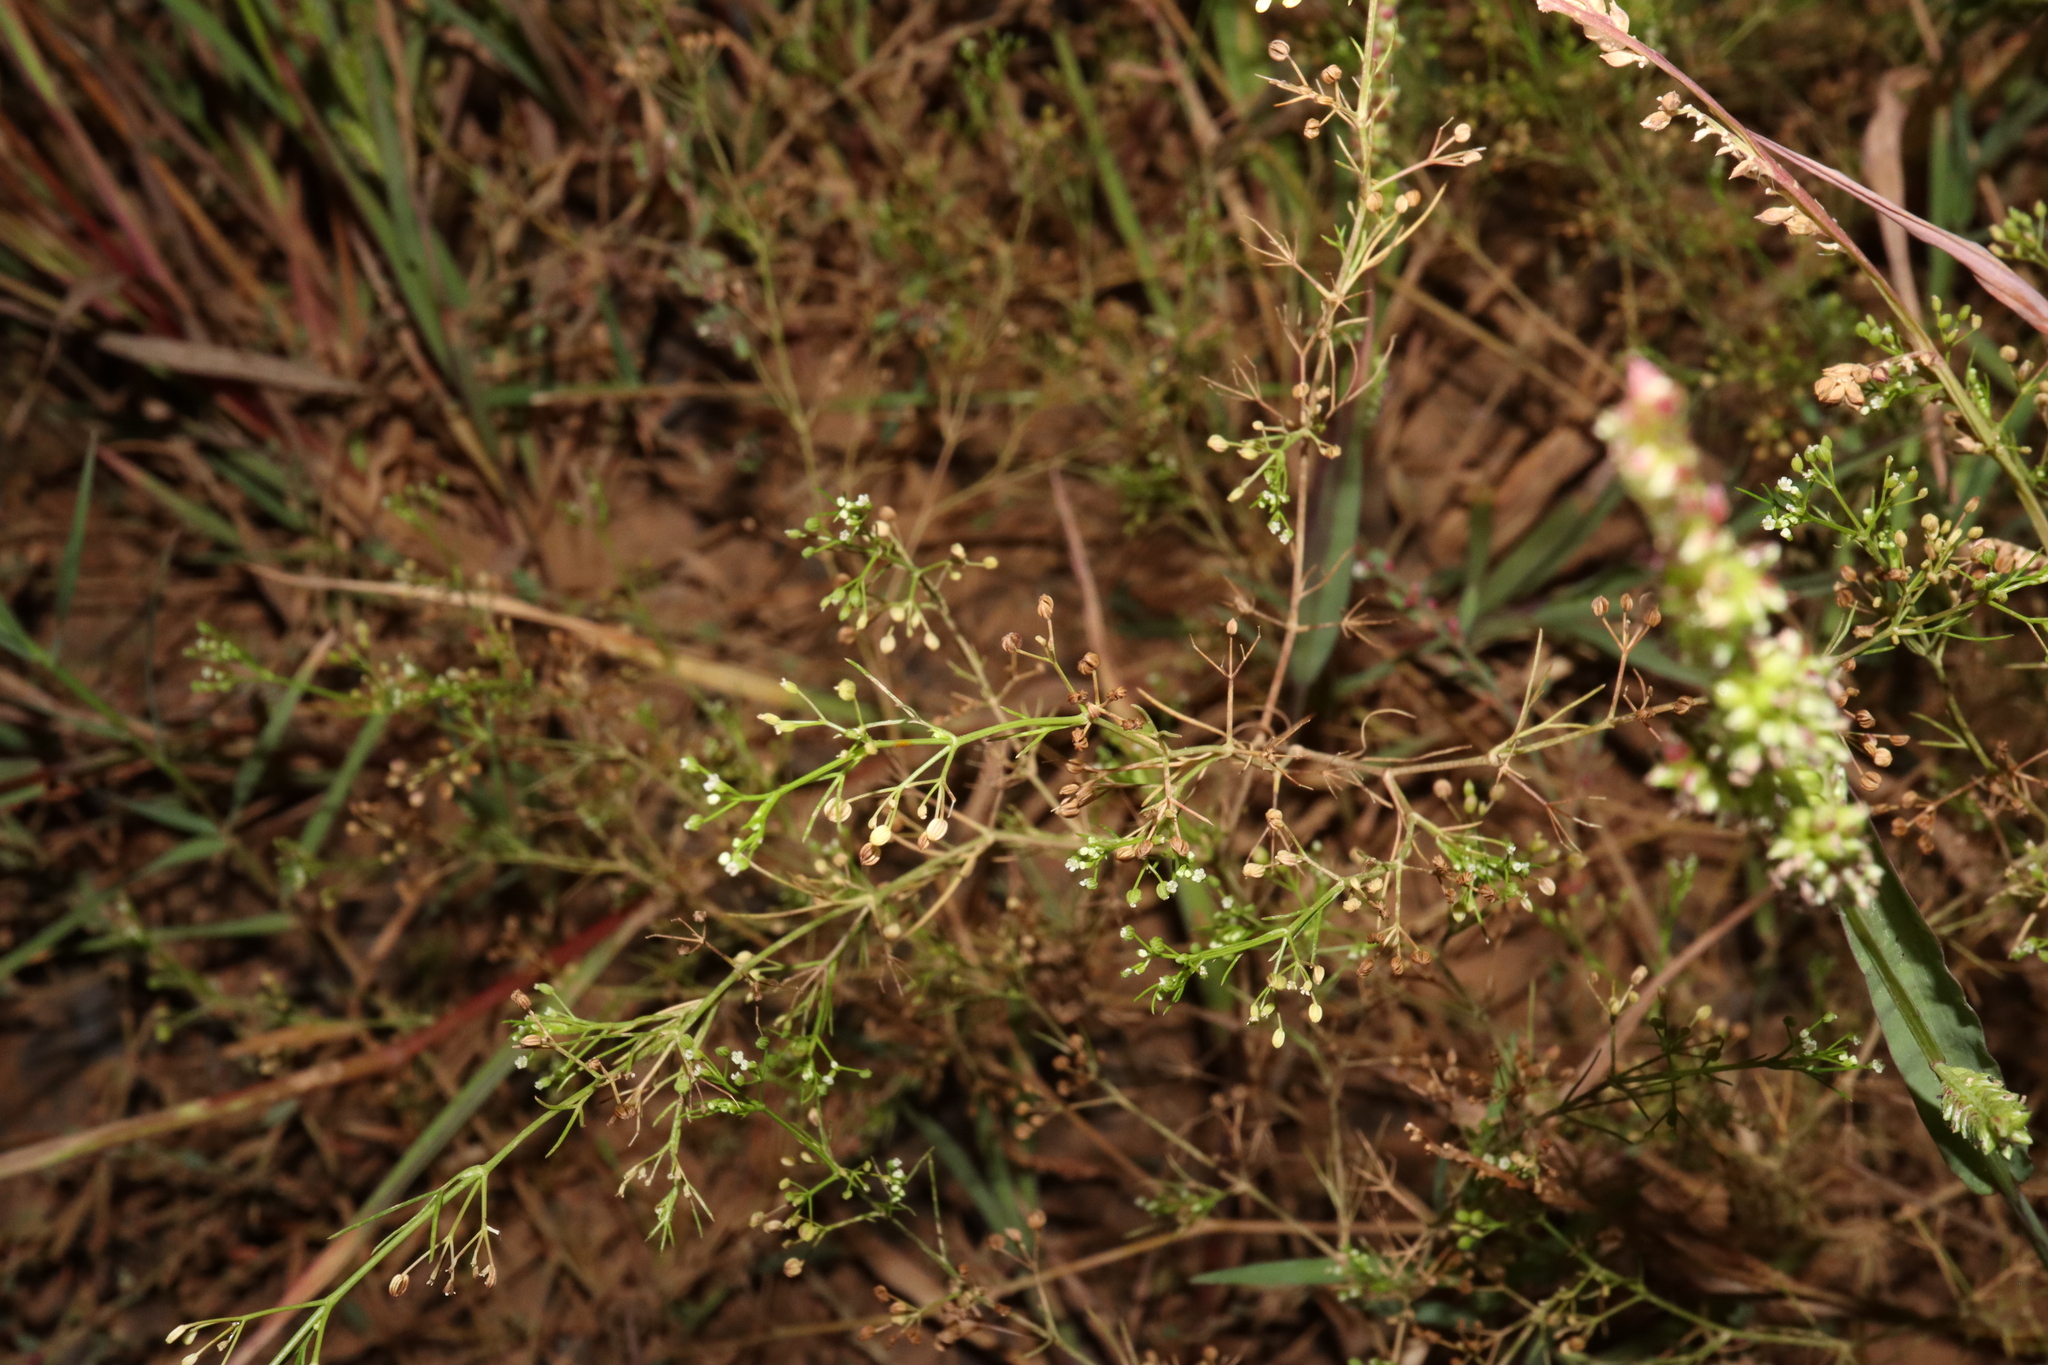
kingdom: Plantae
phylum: Tracheophyta
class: Magnoliopsida
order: Apiales
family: Apiaceae
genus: Cyclospermum
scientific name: Cyclospermum leptophyllum
